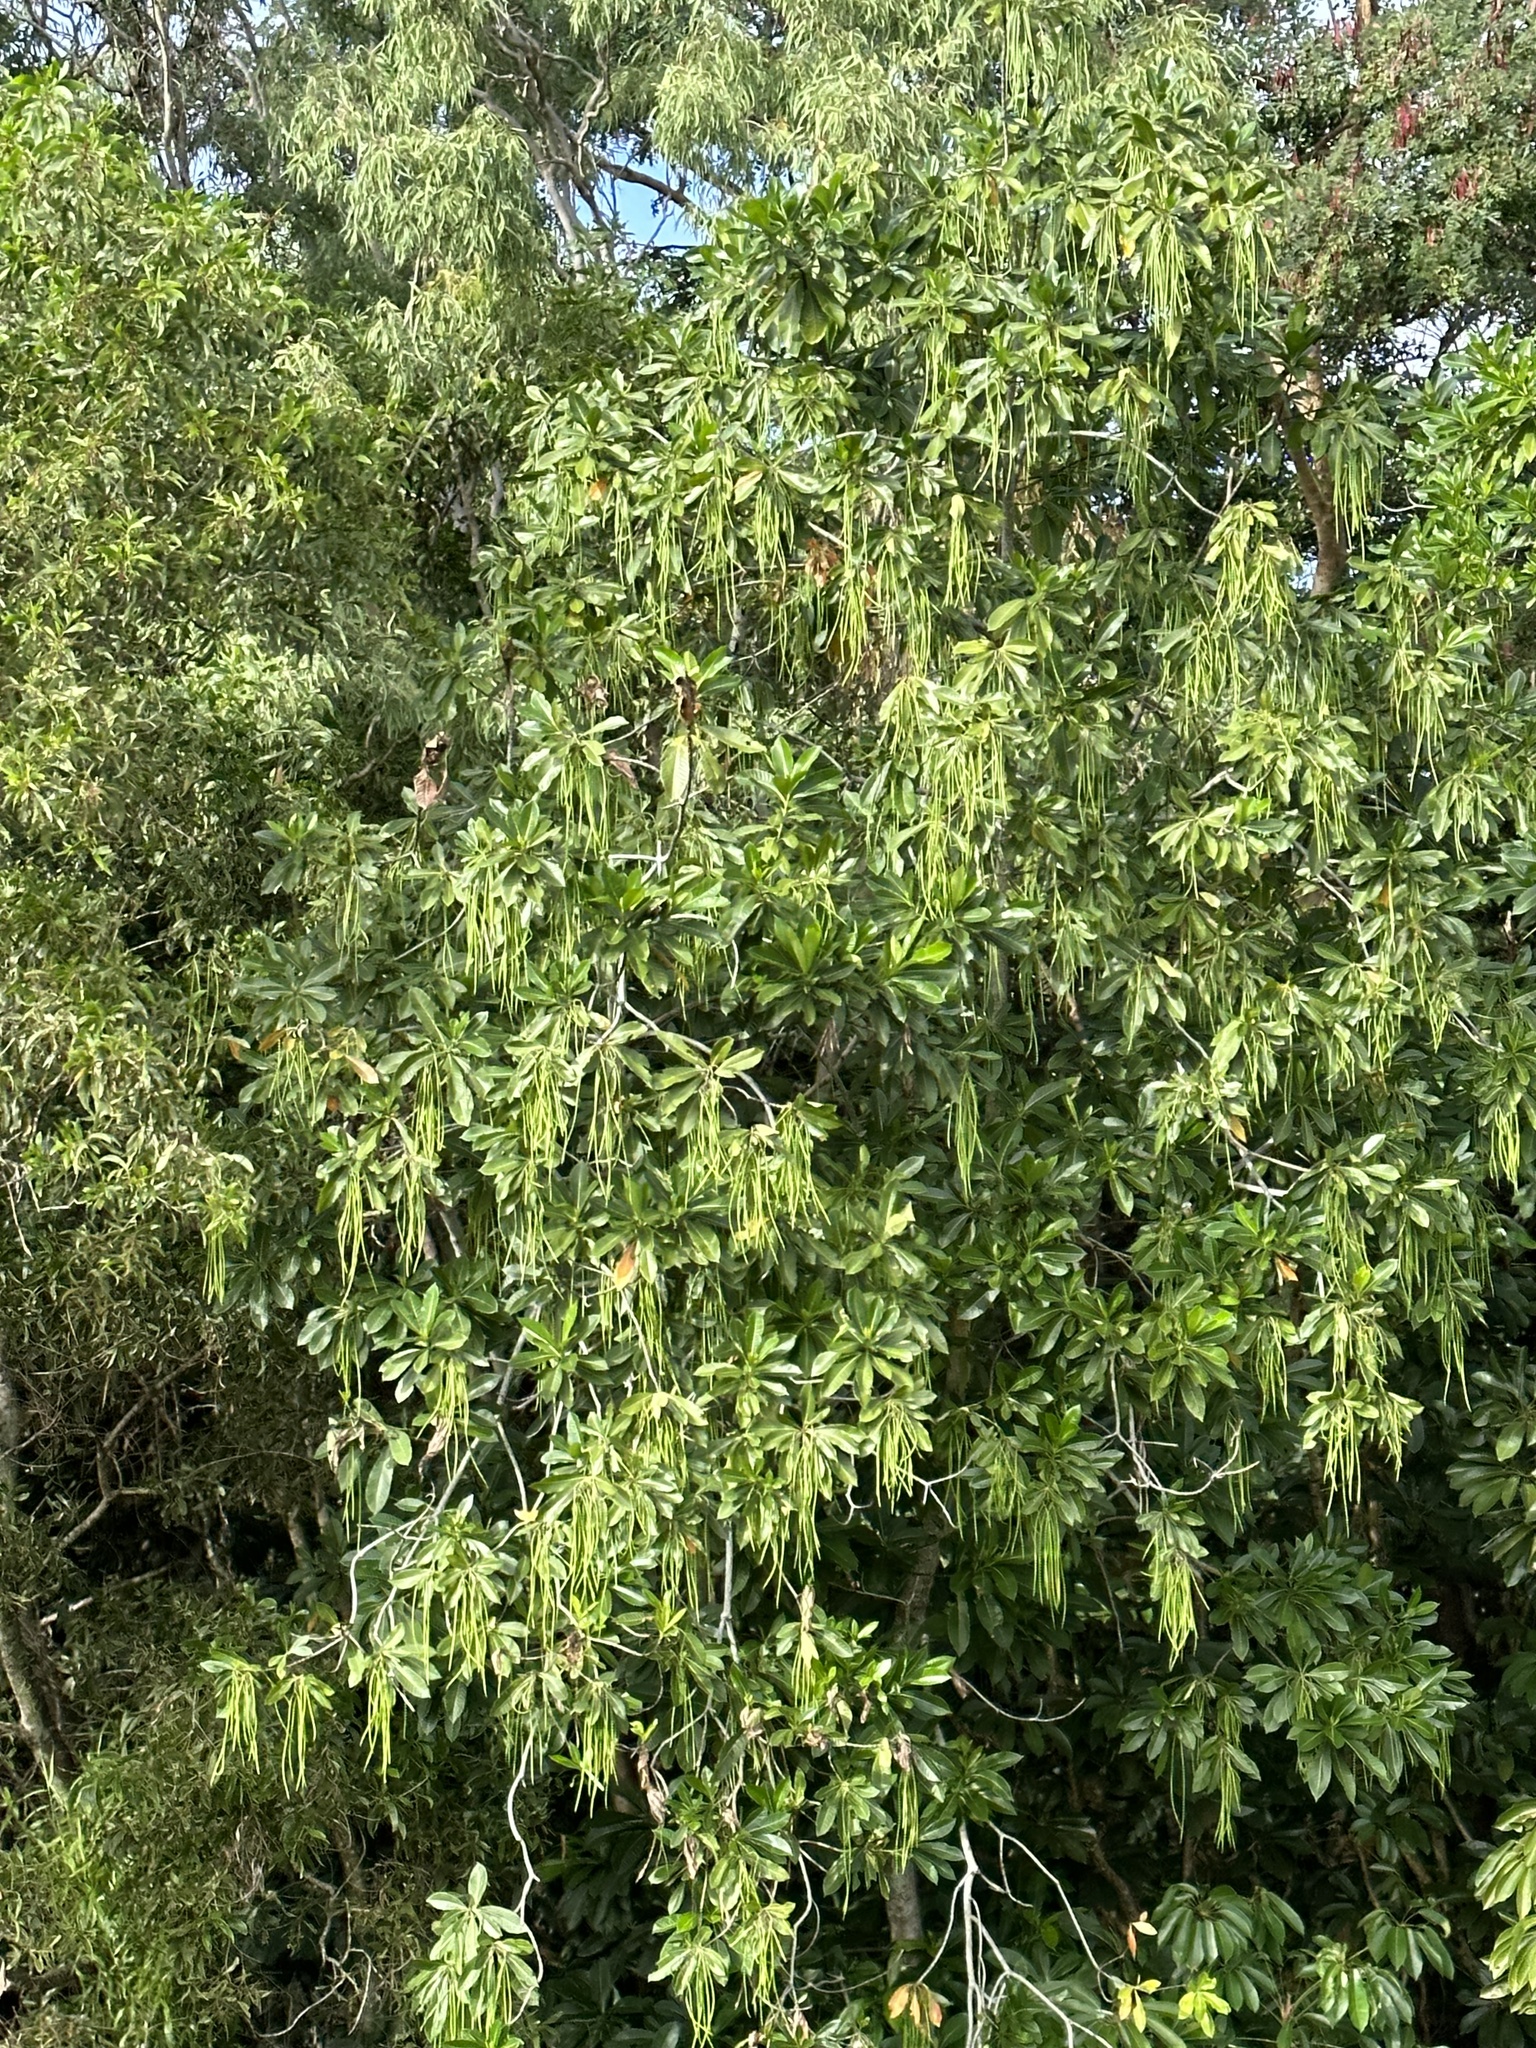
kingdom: Plantae
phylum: Tracheophyta
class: Magnoliopsida
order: Ericales
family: Lecythidaceae
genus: Barringtonia
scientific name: Barringtonia acutangula
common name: Freshwater mangrove
